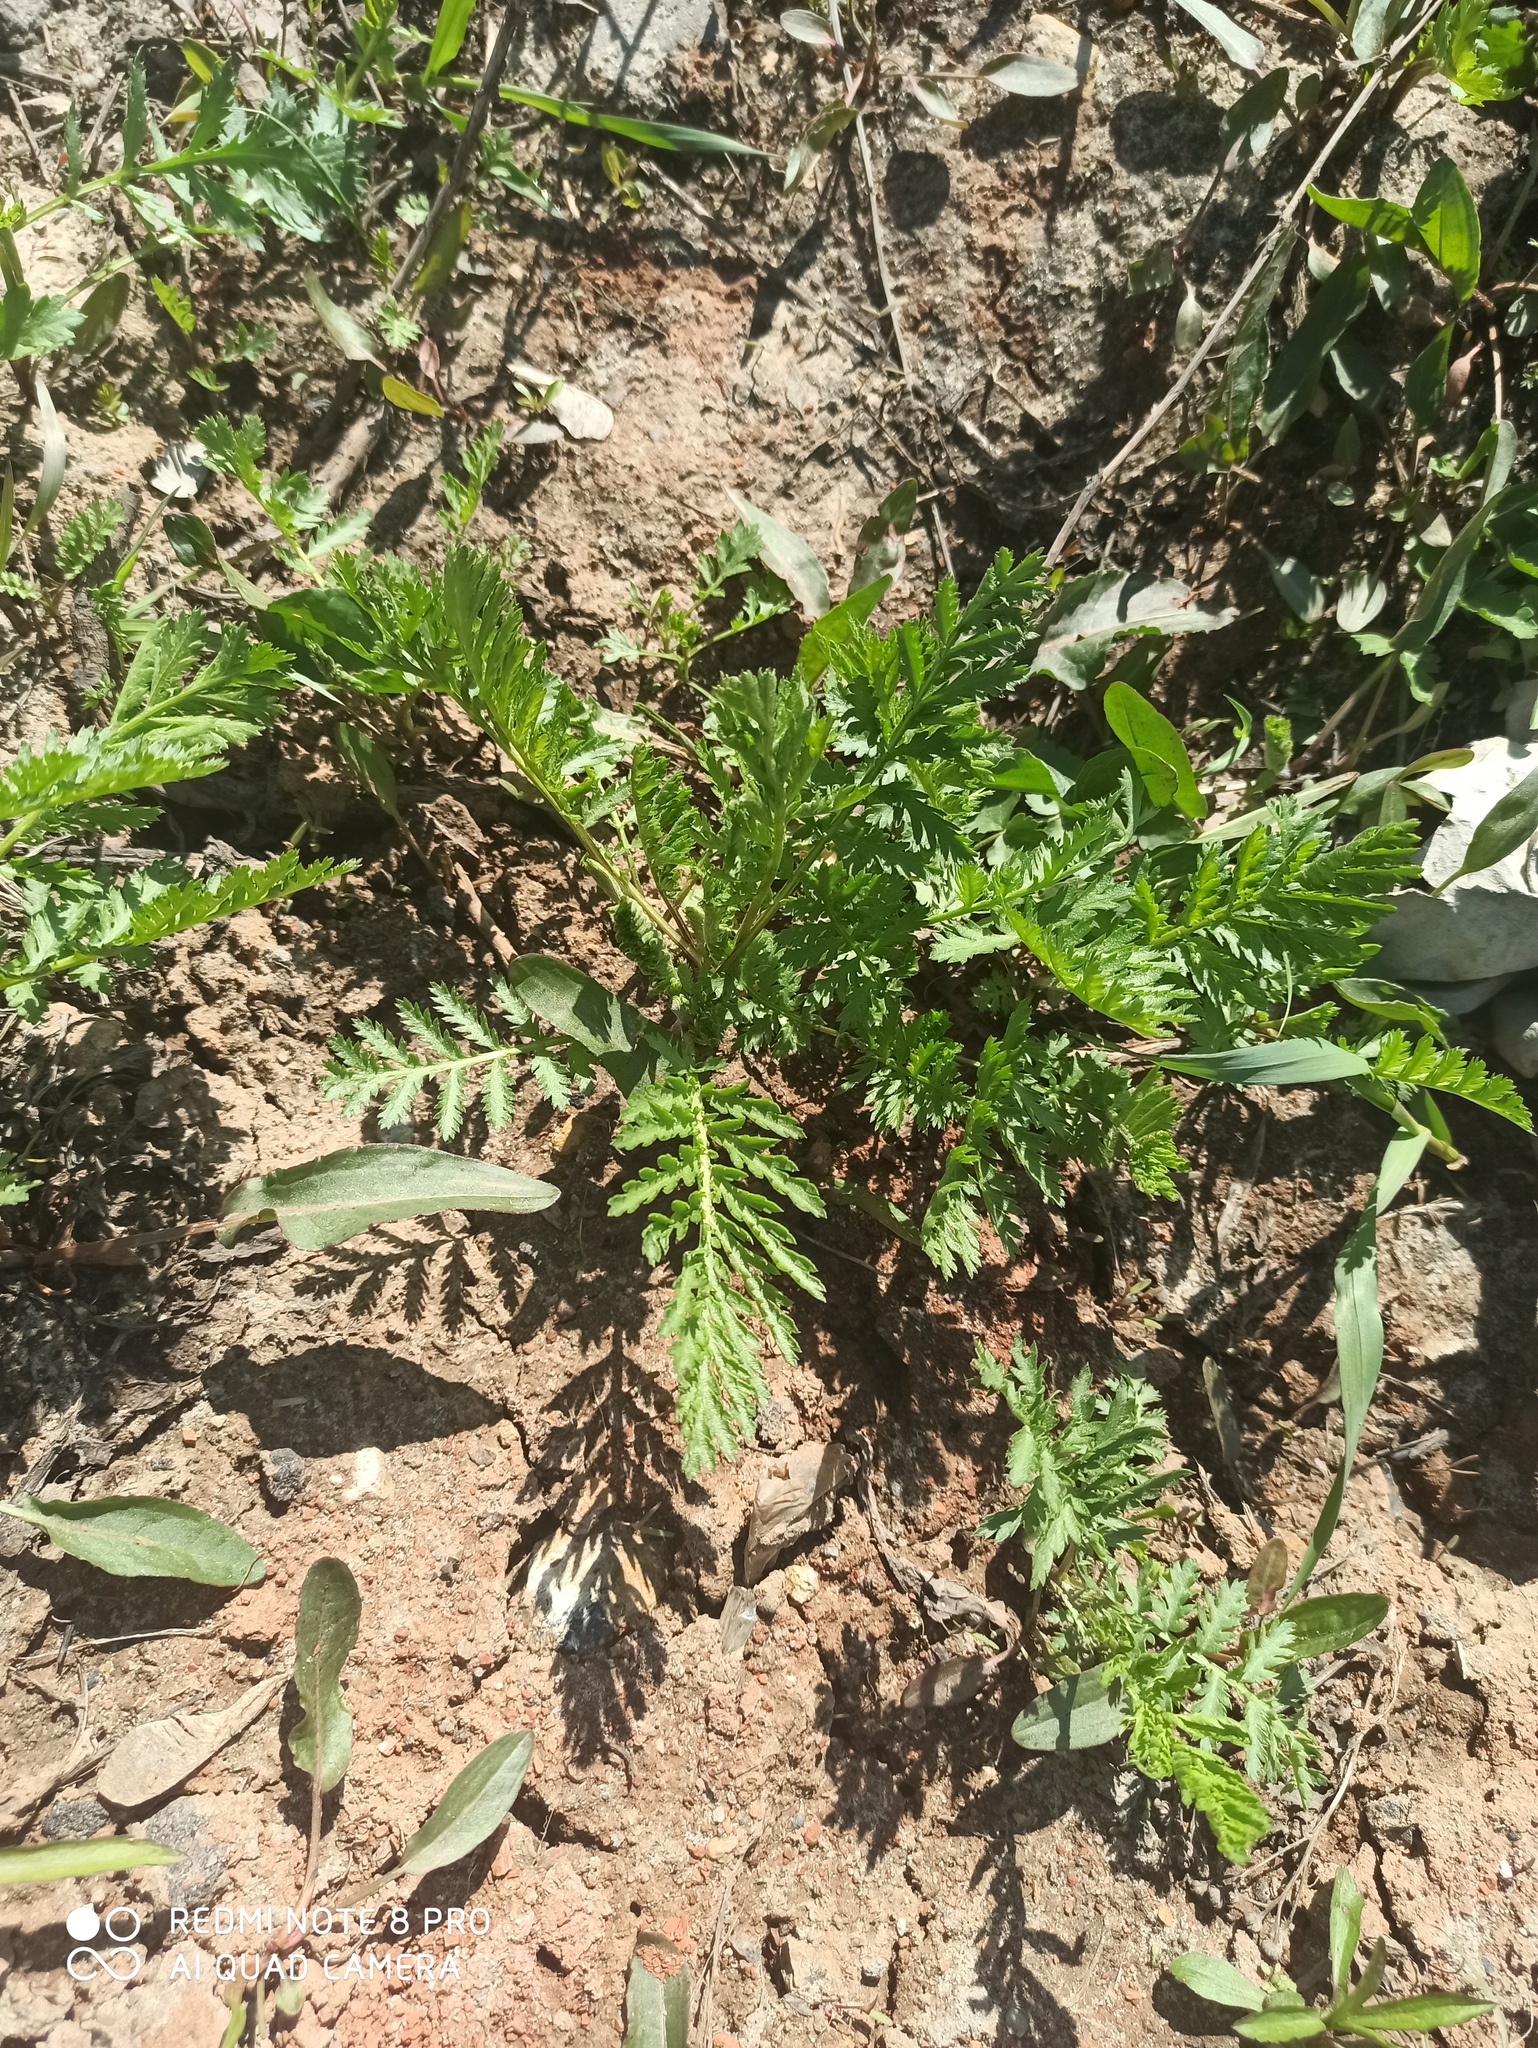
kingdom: Plantae
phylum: Tracheophyta
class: Magnoliopsida
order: Asterales
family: Asteraceae
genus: Tanacetum
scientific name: Tanacetum vulgare
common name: Common tansy
